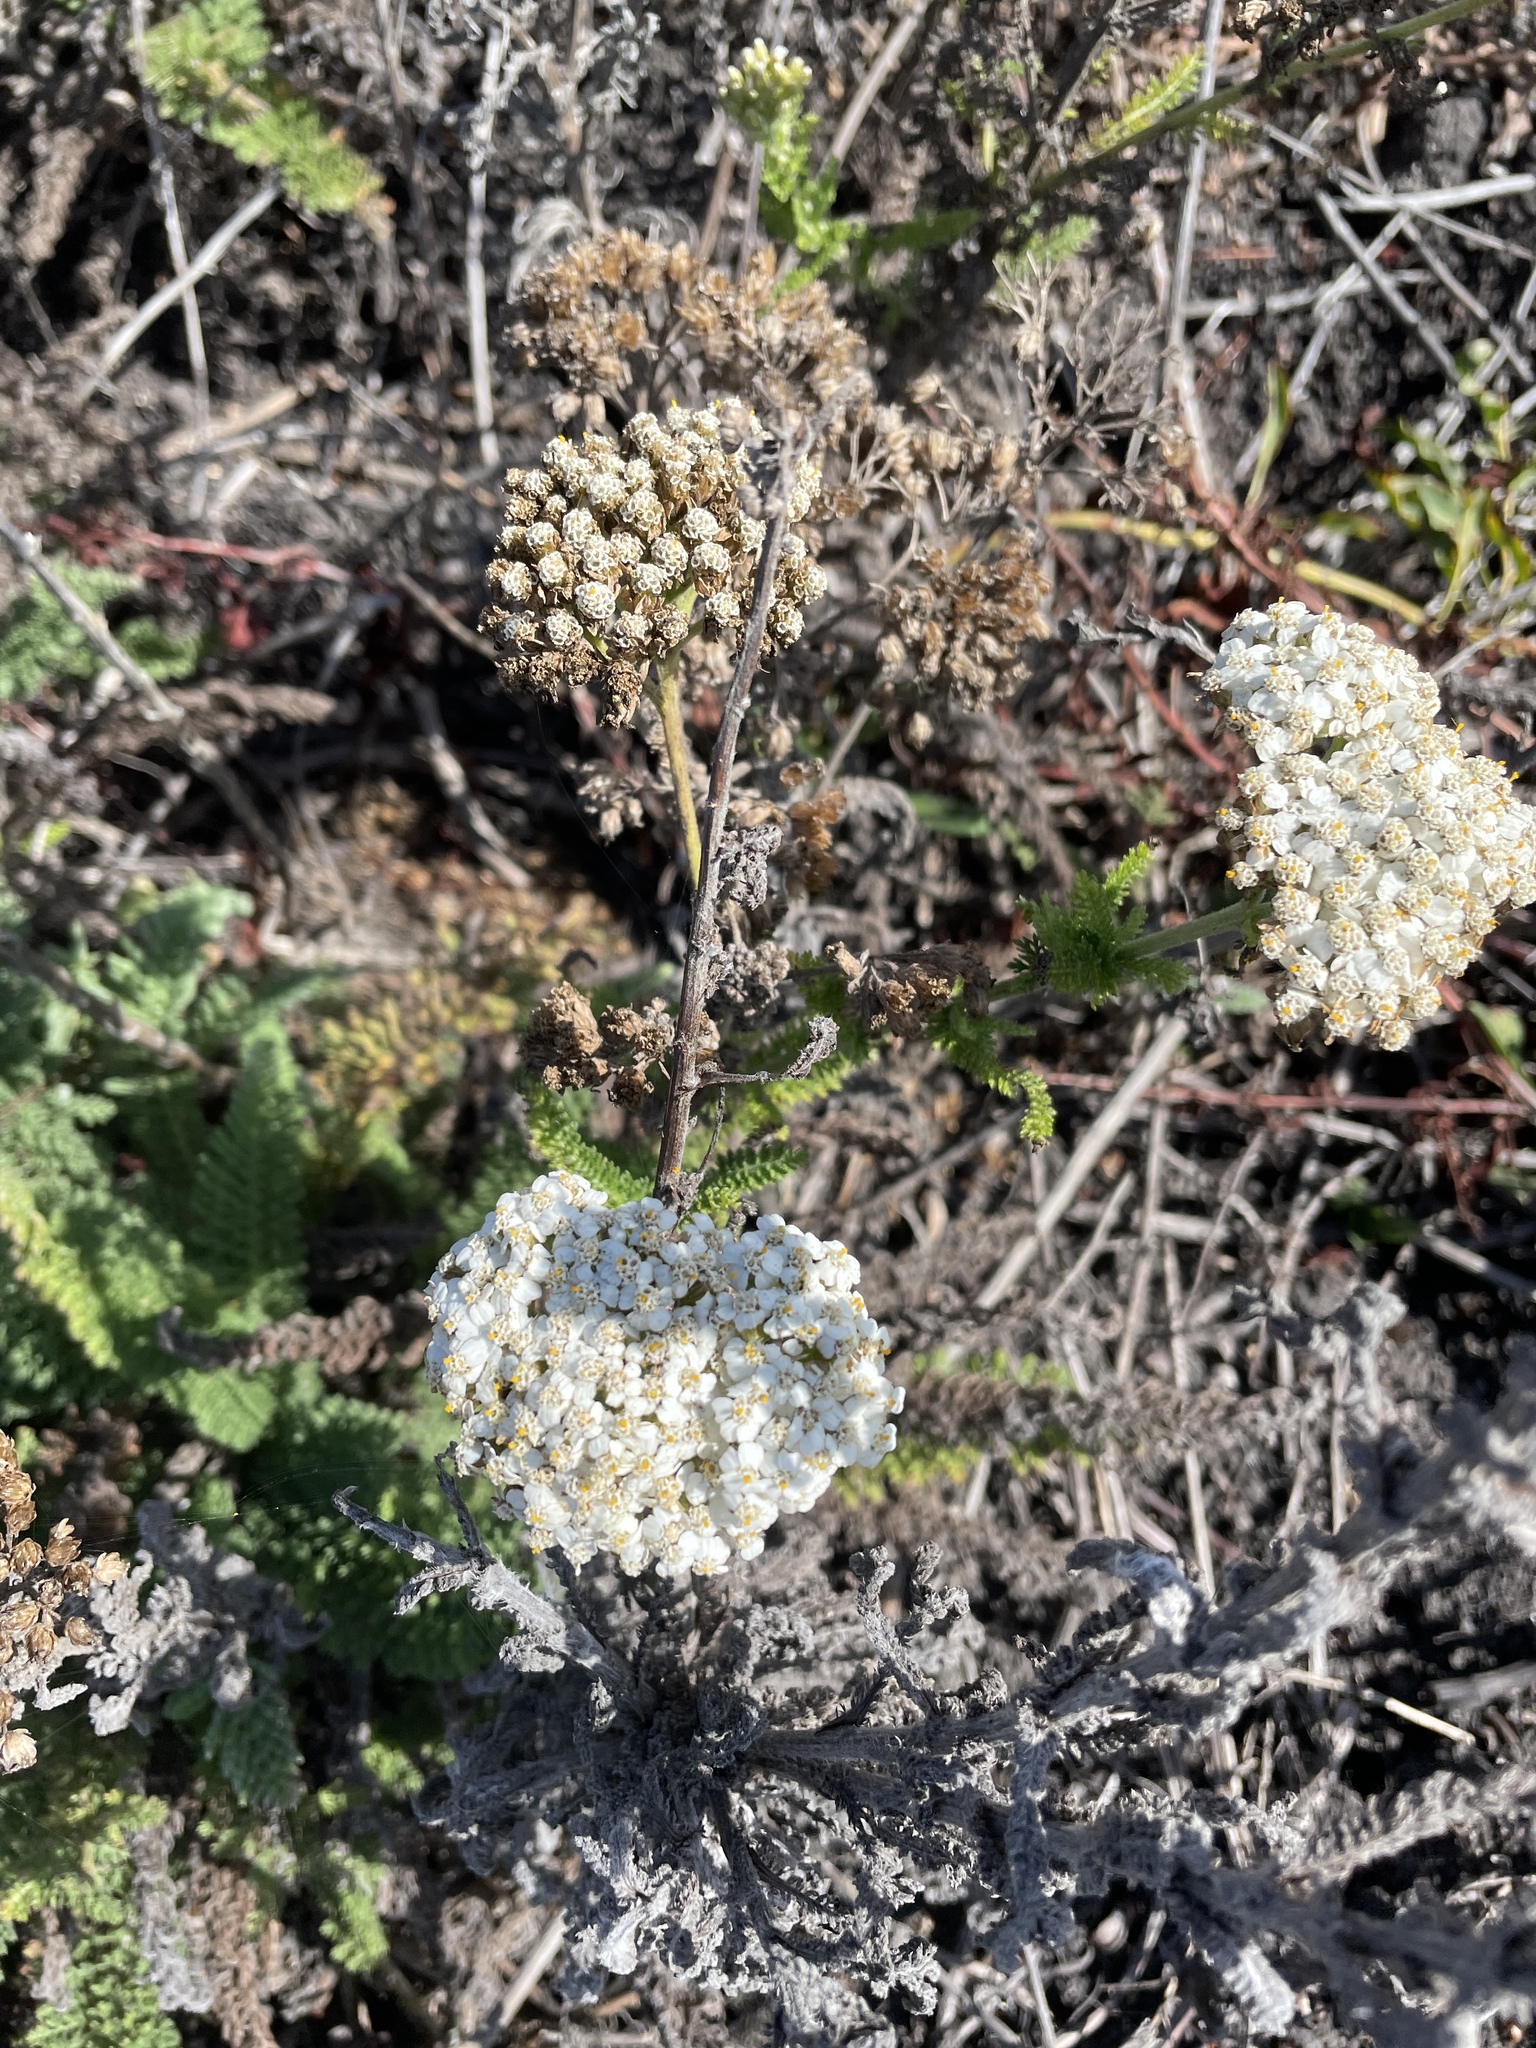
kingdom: Plantae
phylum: Tracheophyta
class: Magnoliopsida
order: Asterales
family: Asteraceae
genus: Achillea
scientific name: Achillea millefolium
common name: Yarrow
